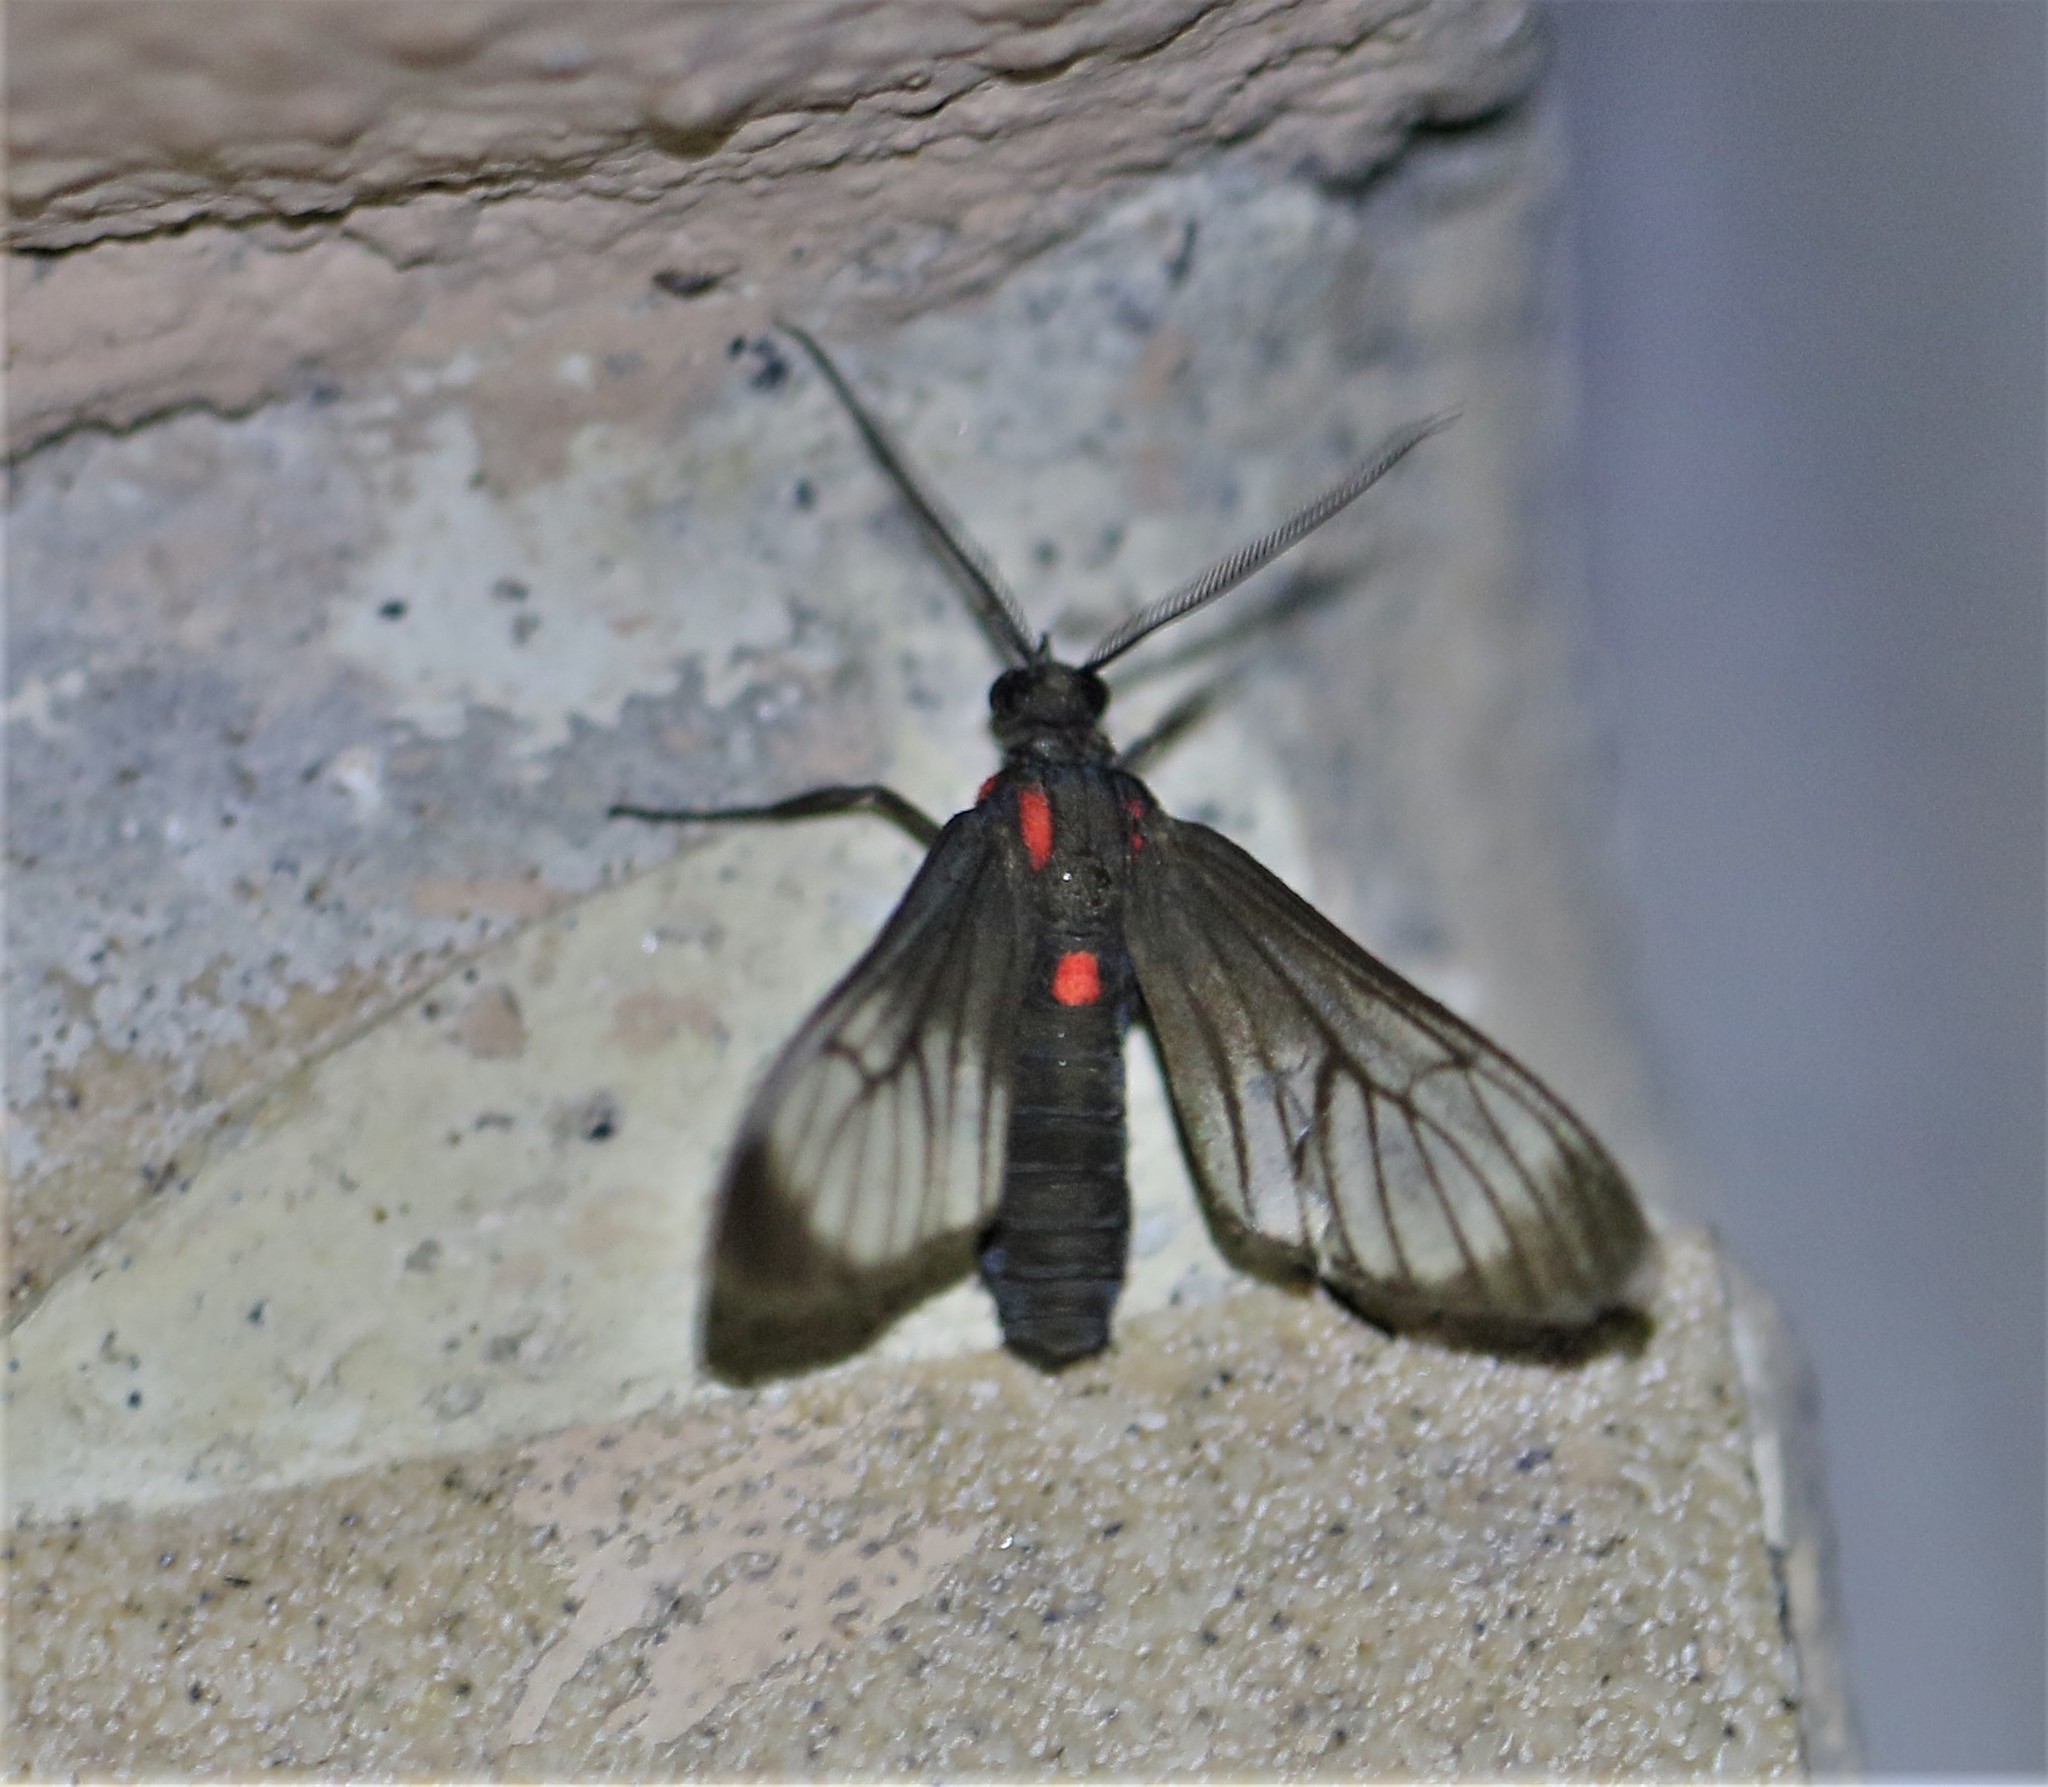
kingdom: Animalia
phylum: Arthropoda
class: Insecta
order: Lepidoptera
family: Erebidae
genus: Hyperphara
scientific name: Hyperphara clusia
